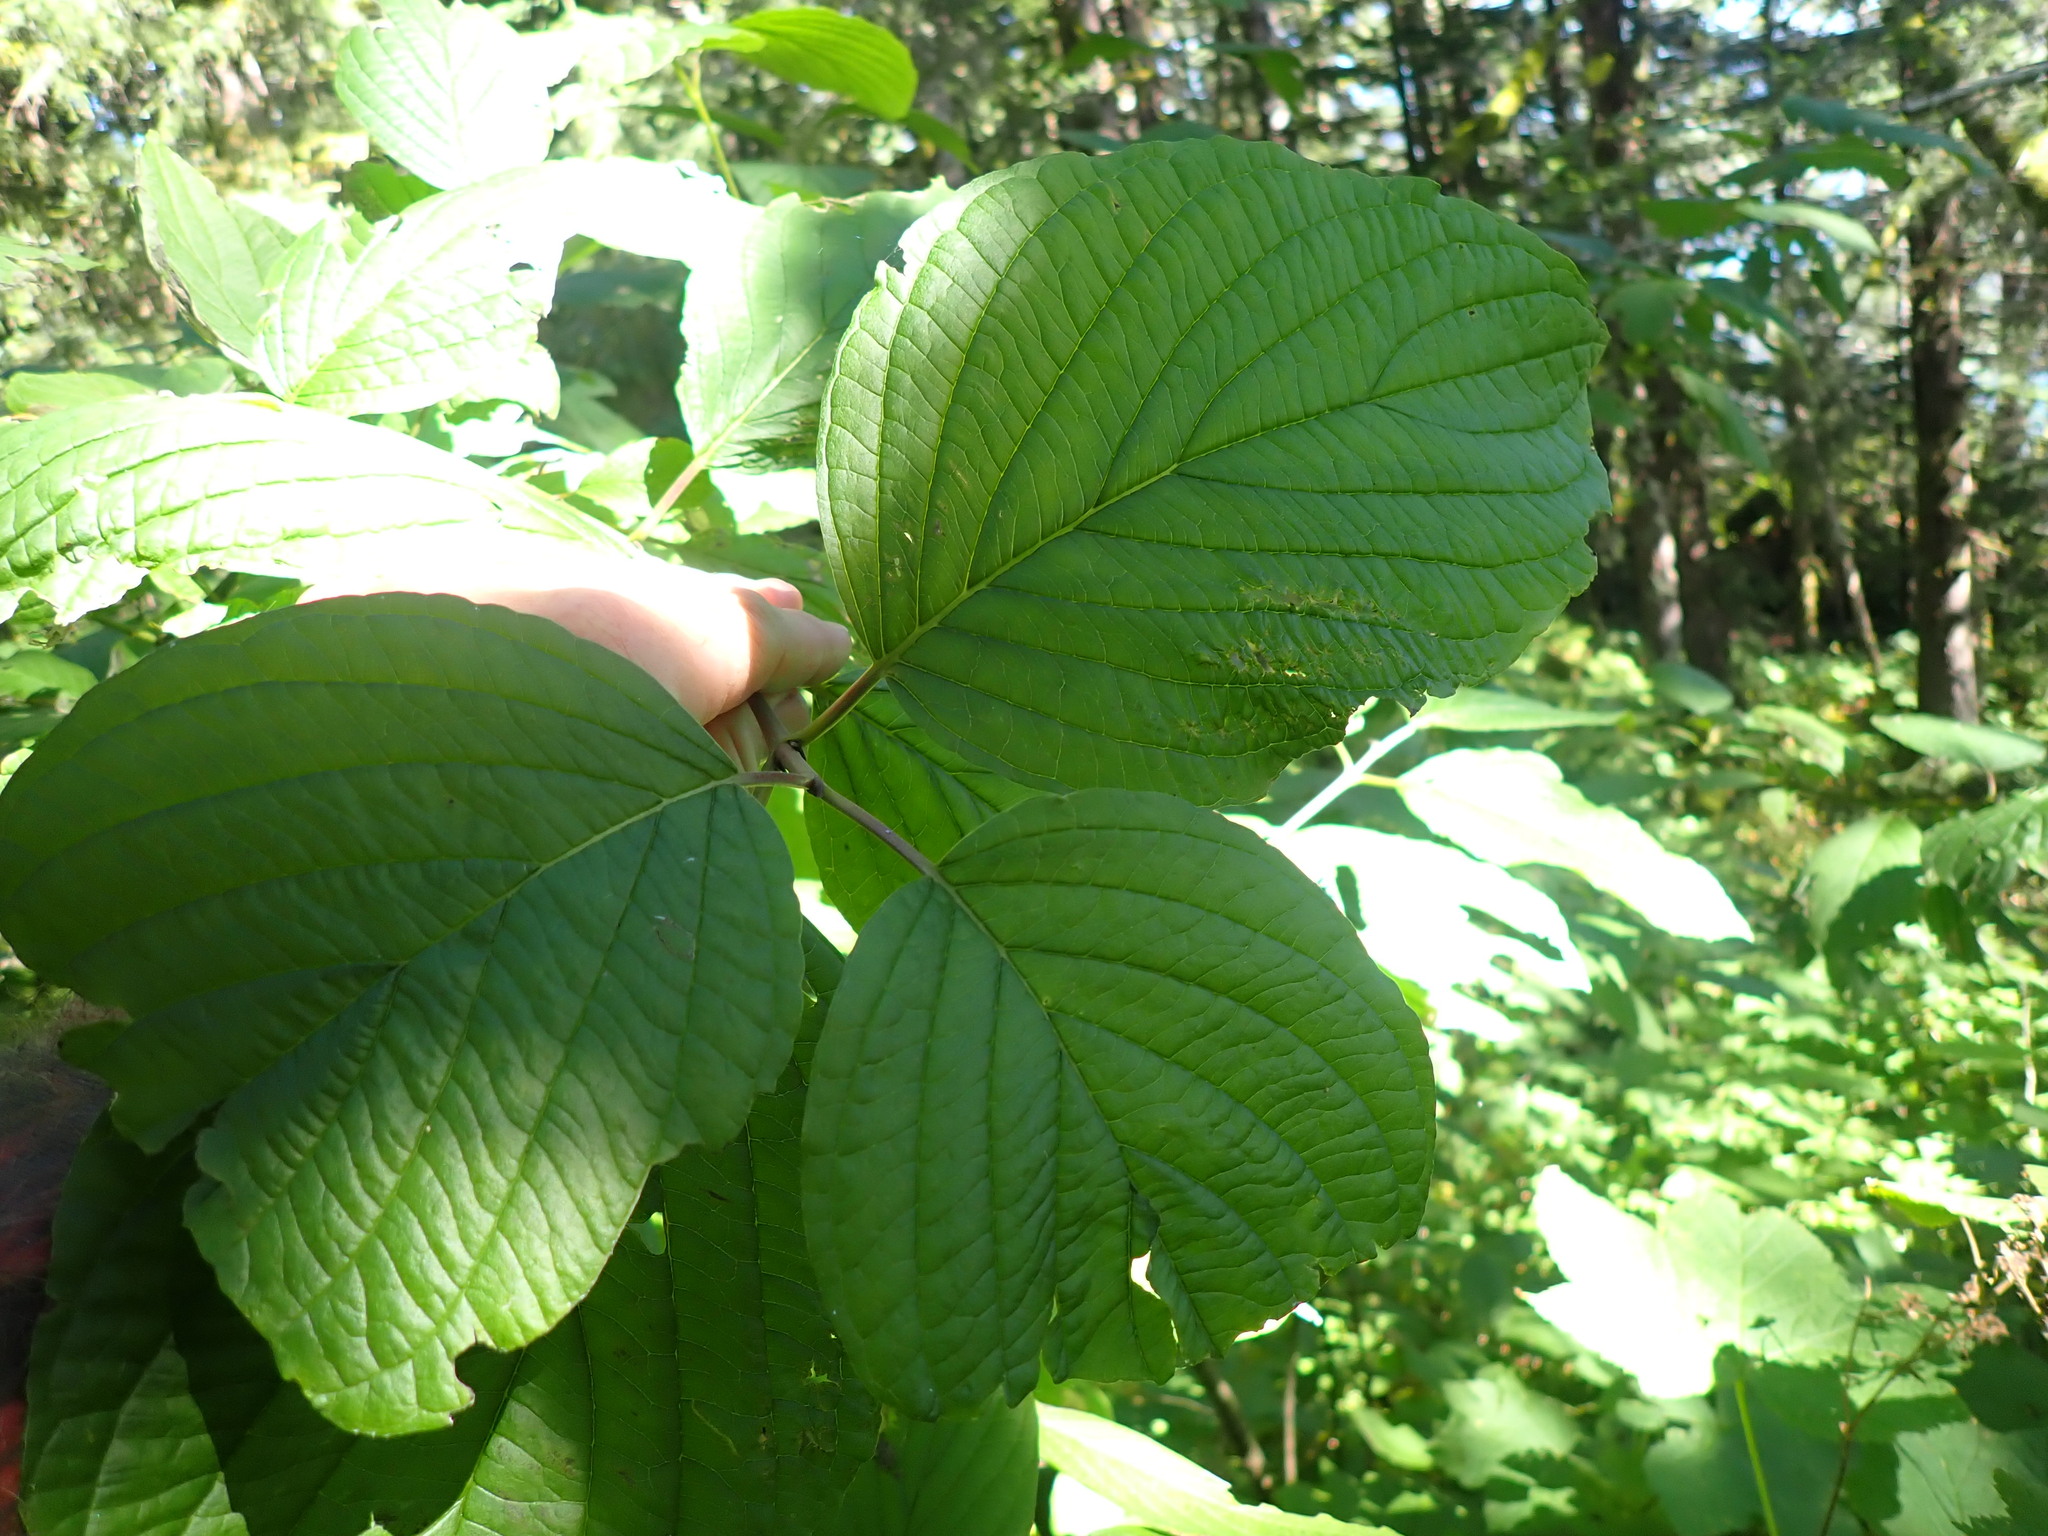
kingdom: Plantae
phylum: Tracheophyta
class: Magnoliopsida
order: Cornales
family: Cornaceae
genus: Cornus
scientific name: Cornus sericea
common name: Red-osier dogwood
